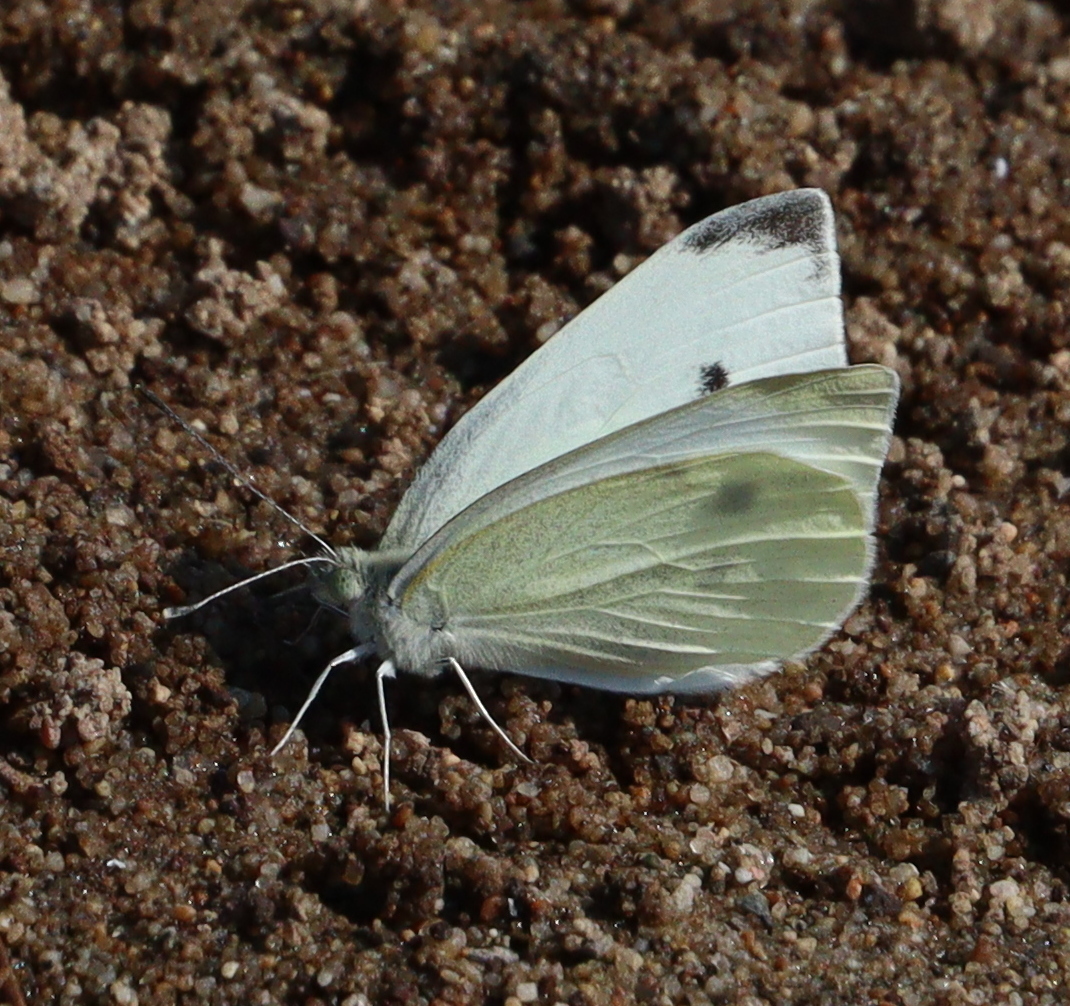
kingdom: Animalia
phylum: Arthropoda
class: Insecta
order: Lepidoptera
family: Pieridae
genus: Pieris
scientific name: Pieris rapae
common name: Small white
